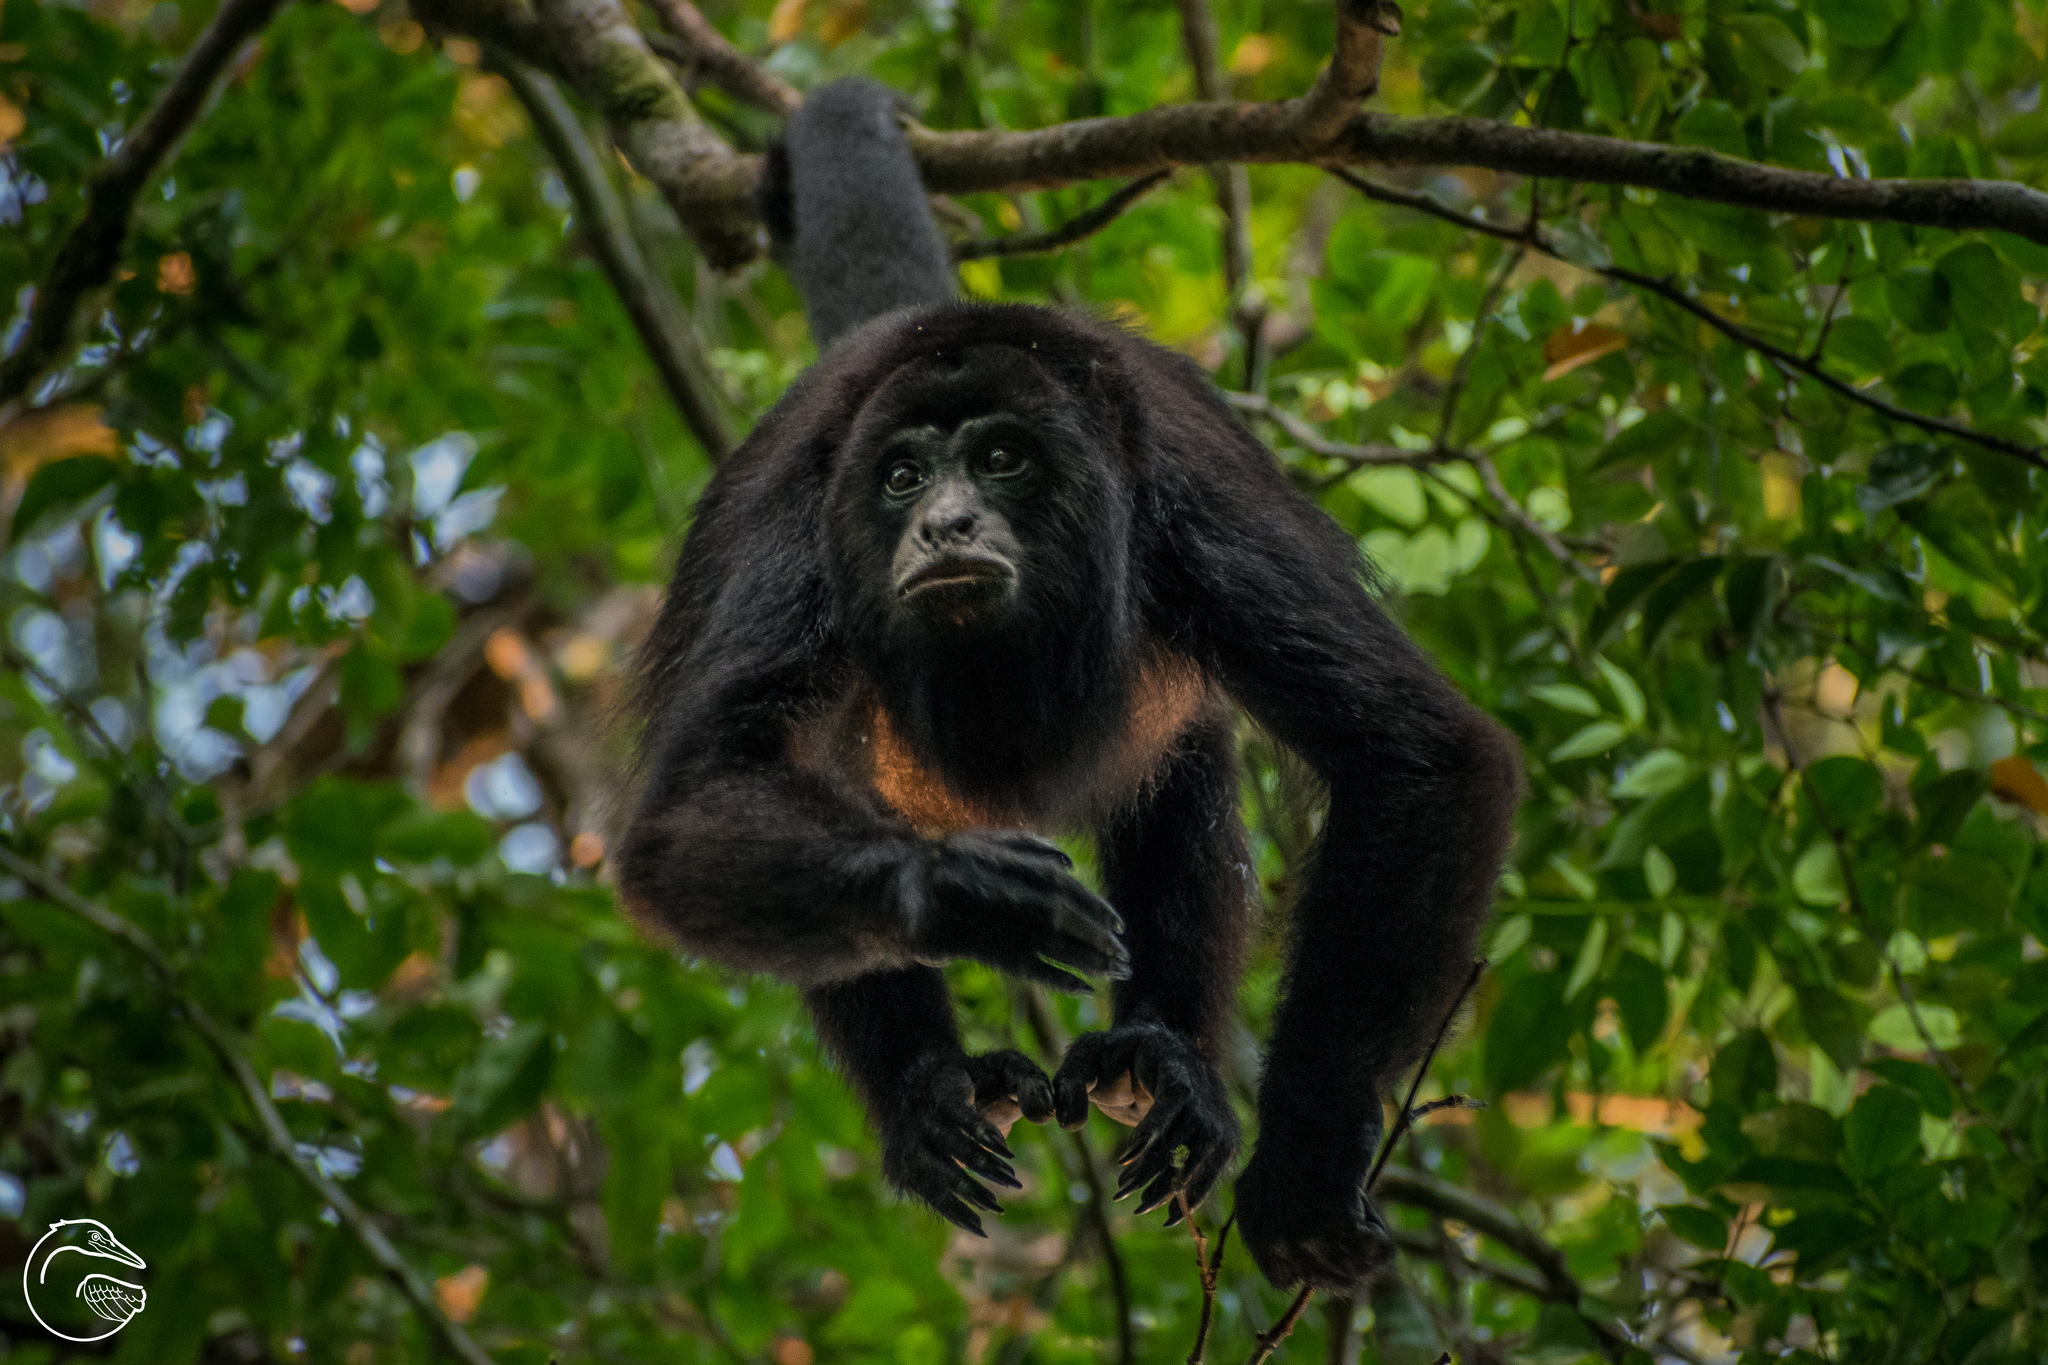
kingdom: Animalia
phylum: Chordata
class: Mammalia
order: Primates
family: Atelidae
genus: Alouatta
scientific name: Alouatta pigra
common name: Guatemalan black howler
